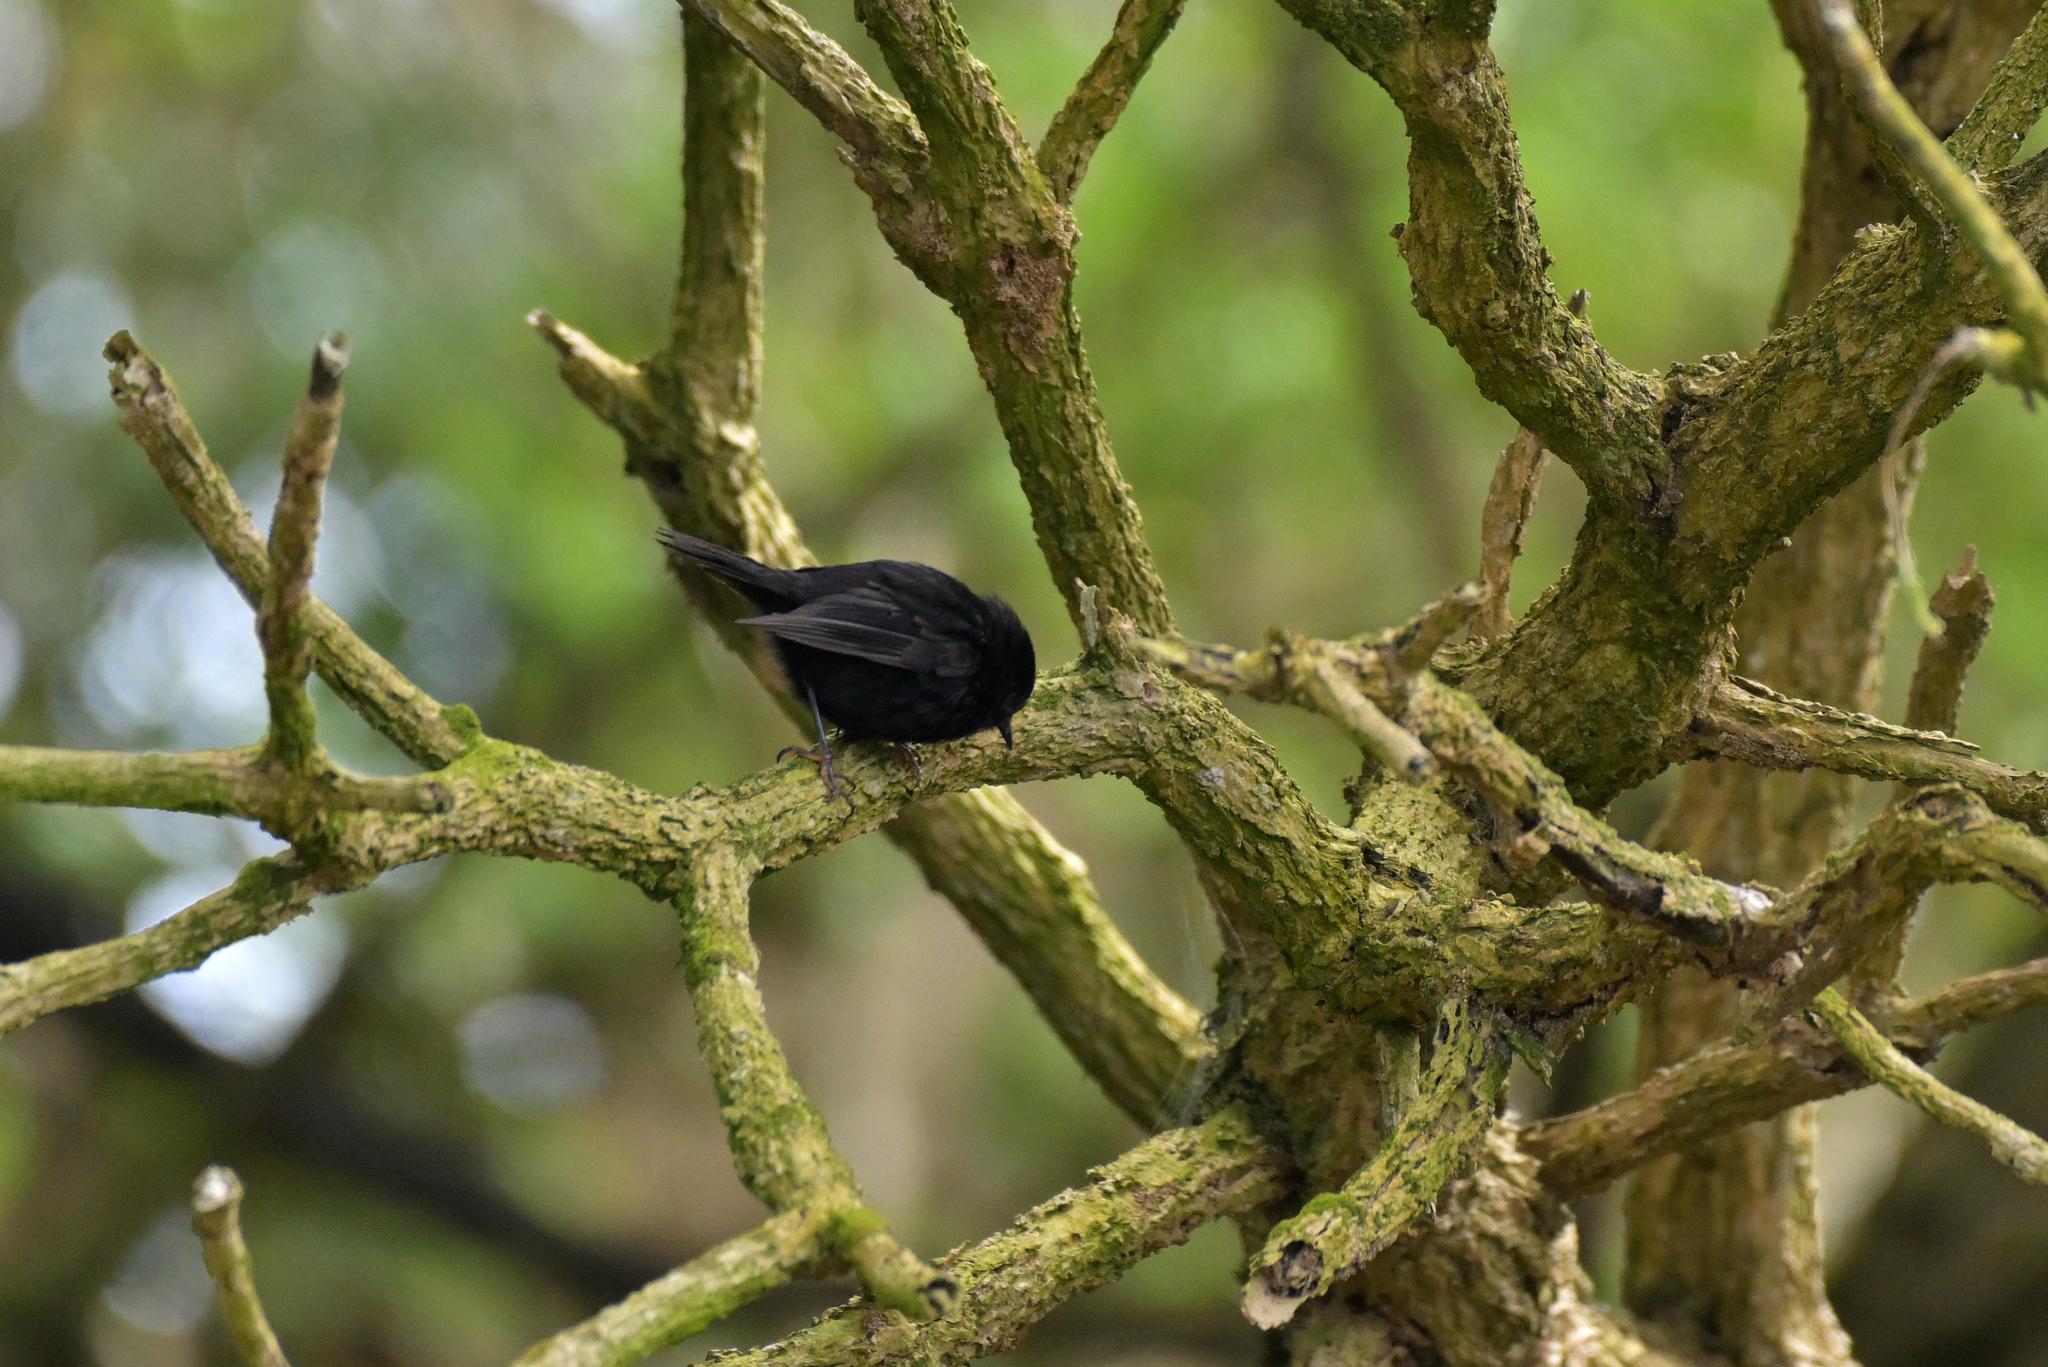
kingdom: Animalia
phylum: Chordata
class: Aves
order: Passeriformes
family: Petroicidae
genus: Petroica
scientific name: Petroica macrocephala
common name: Tomtit
